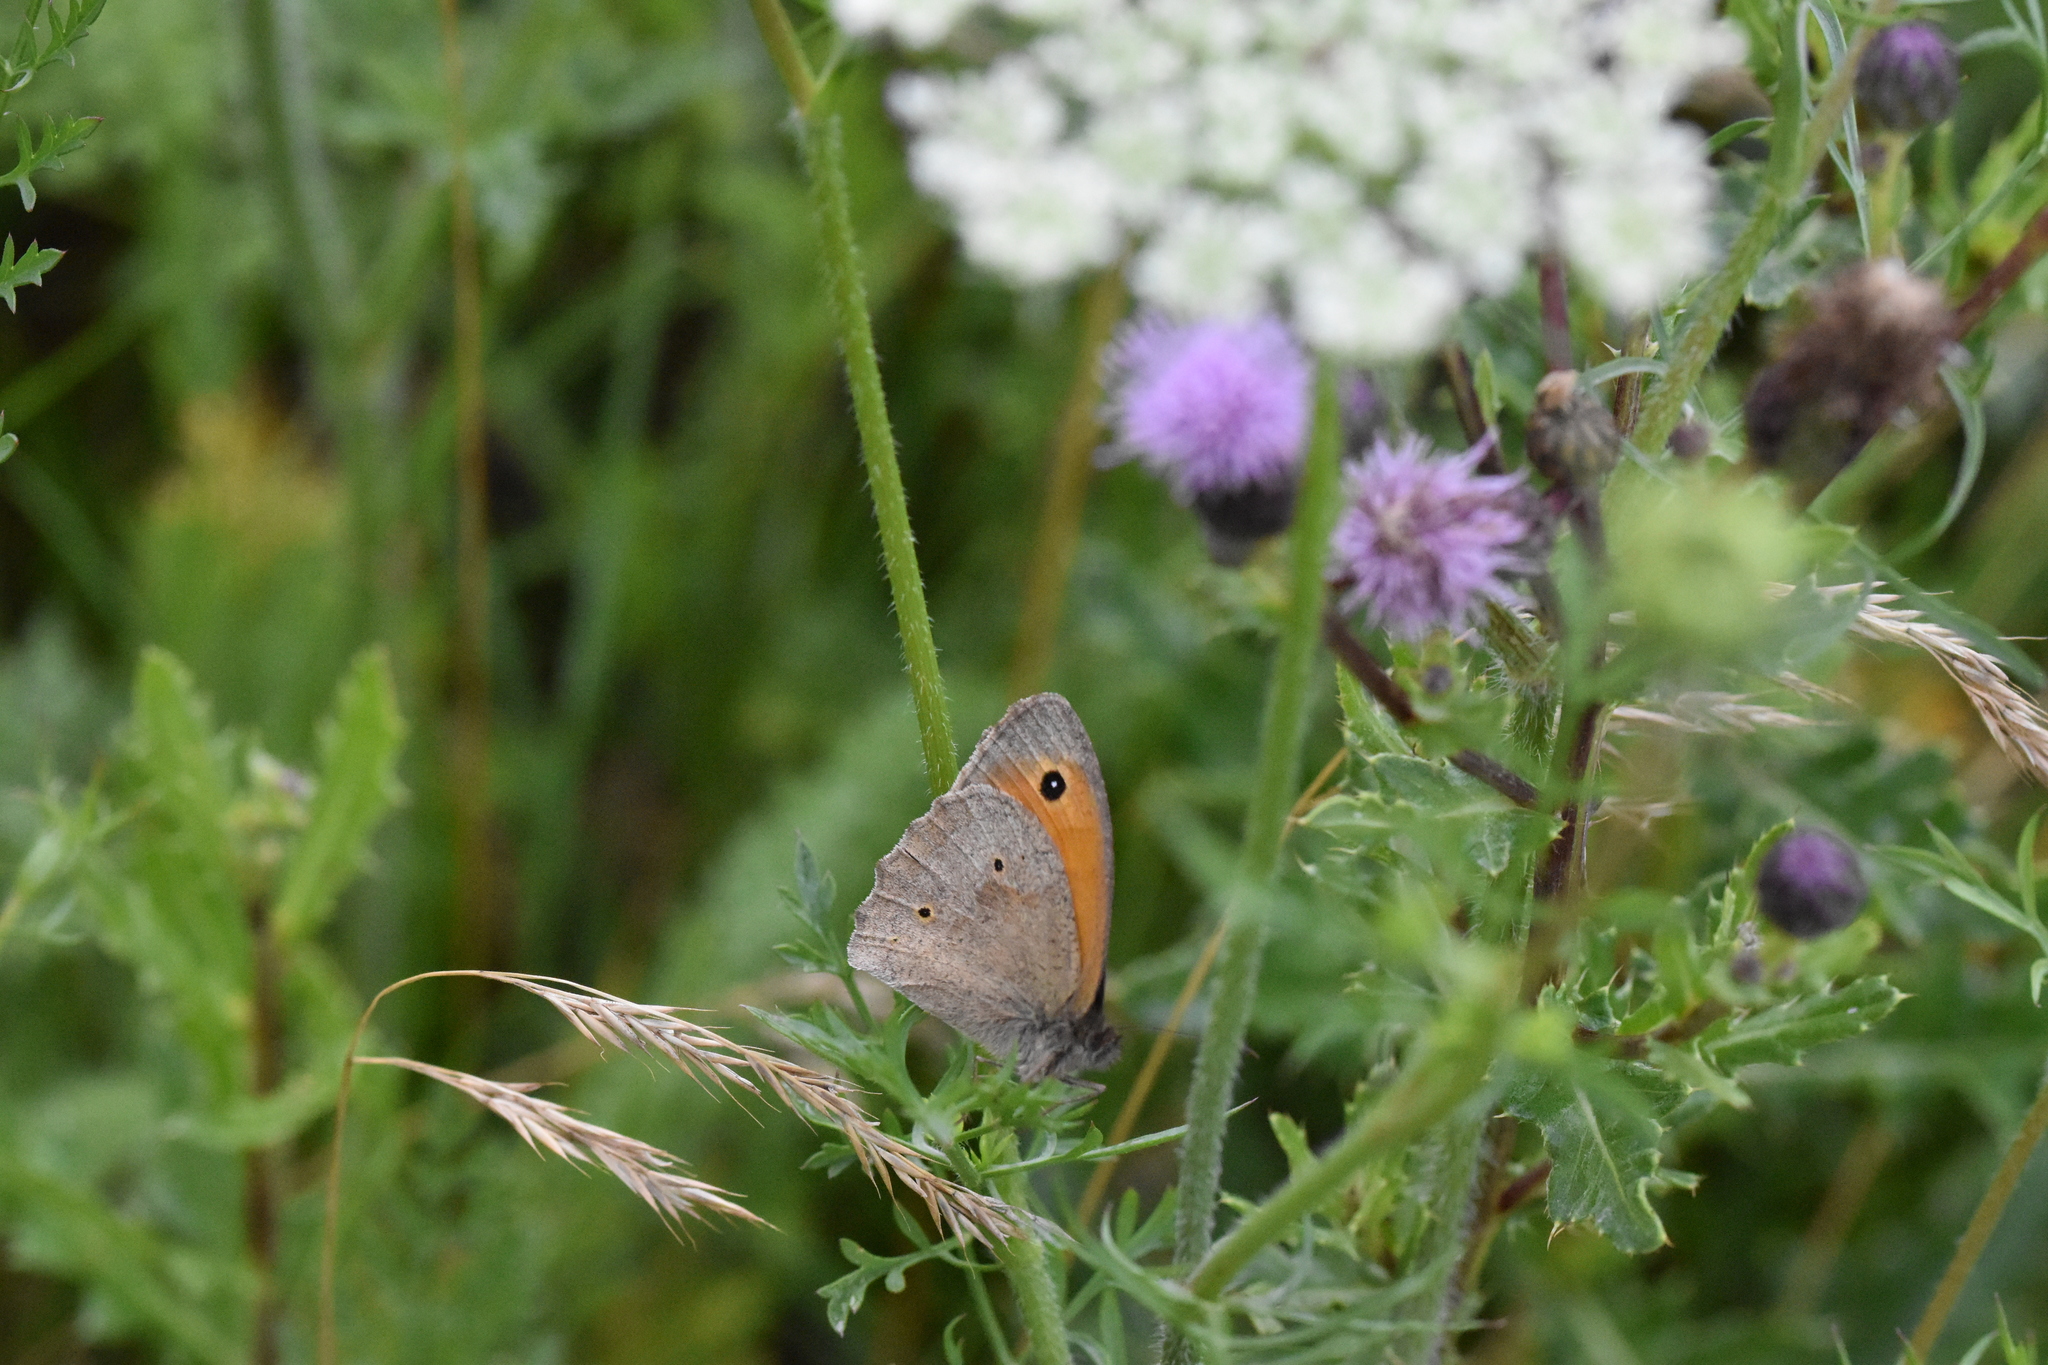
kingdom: Animalia
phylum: Arthropoda
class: Insecta
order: Lepidoptera
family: Nymphalidae
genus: Maniola
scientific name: Maniola jurtina
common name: Meadow brown
